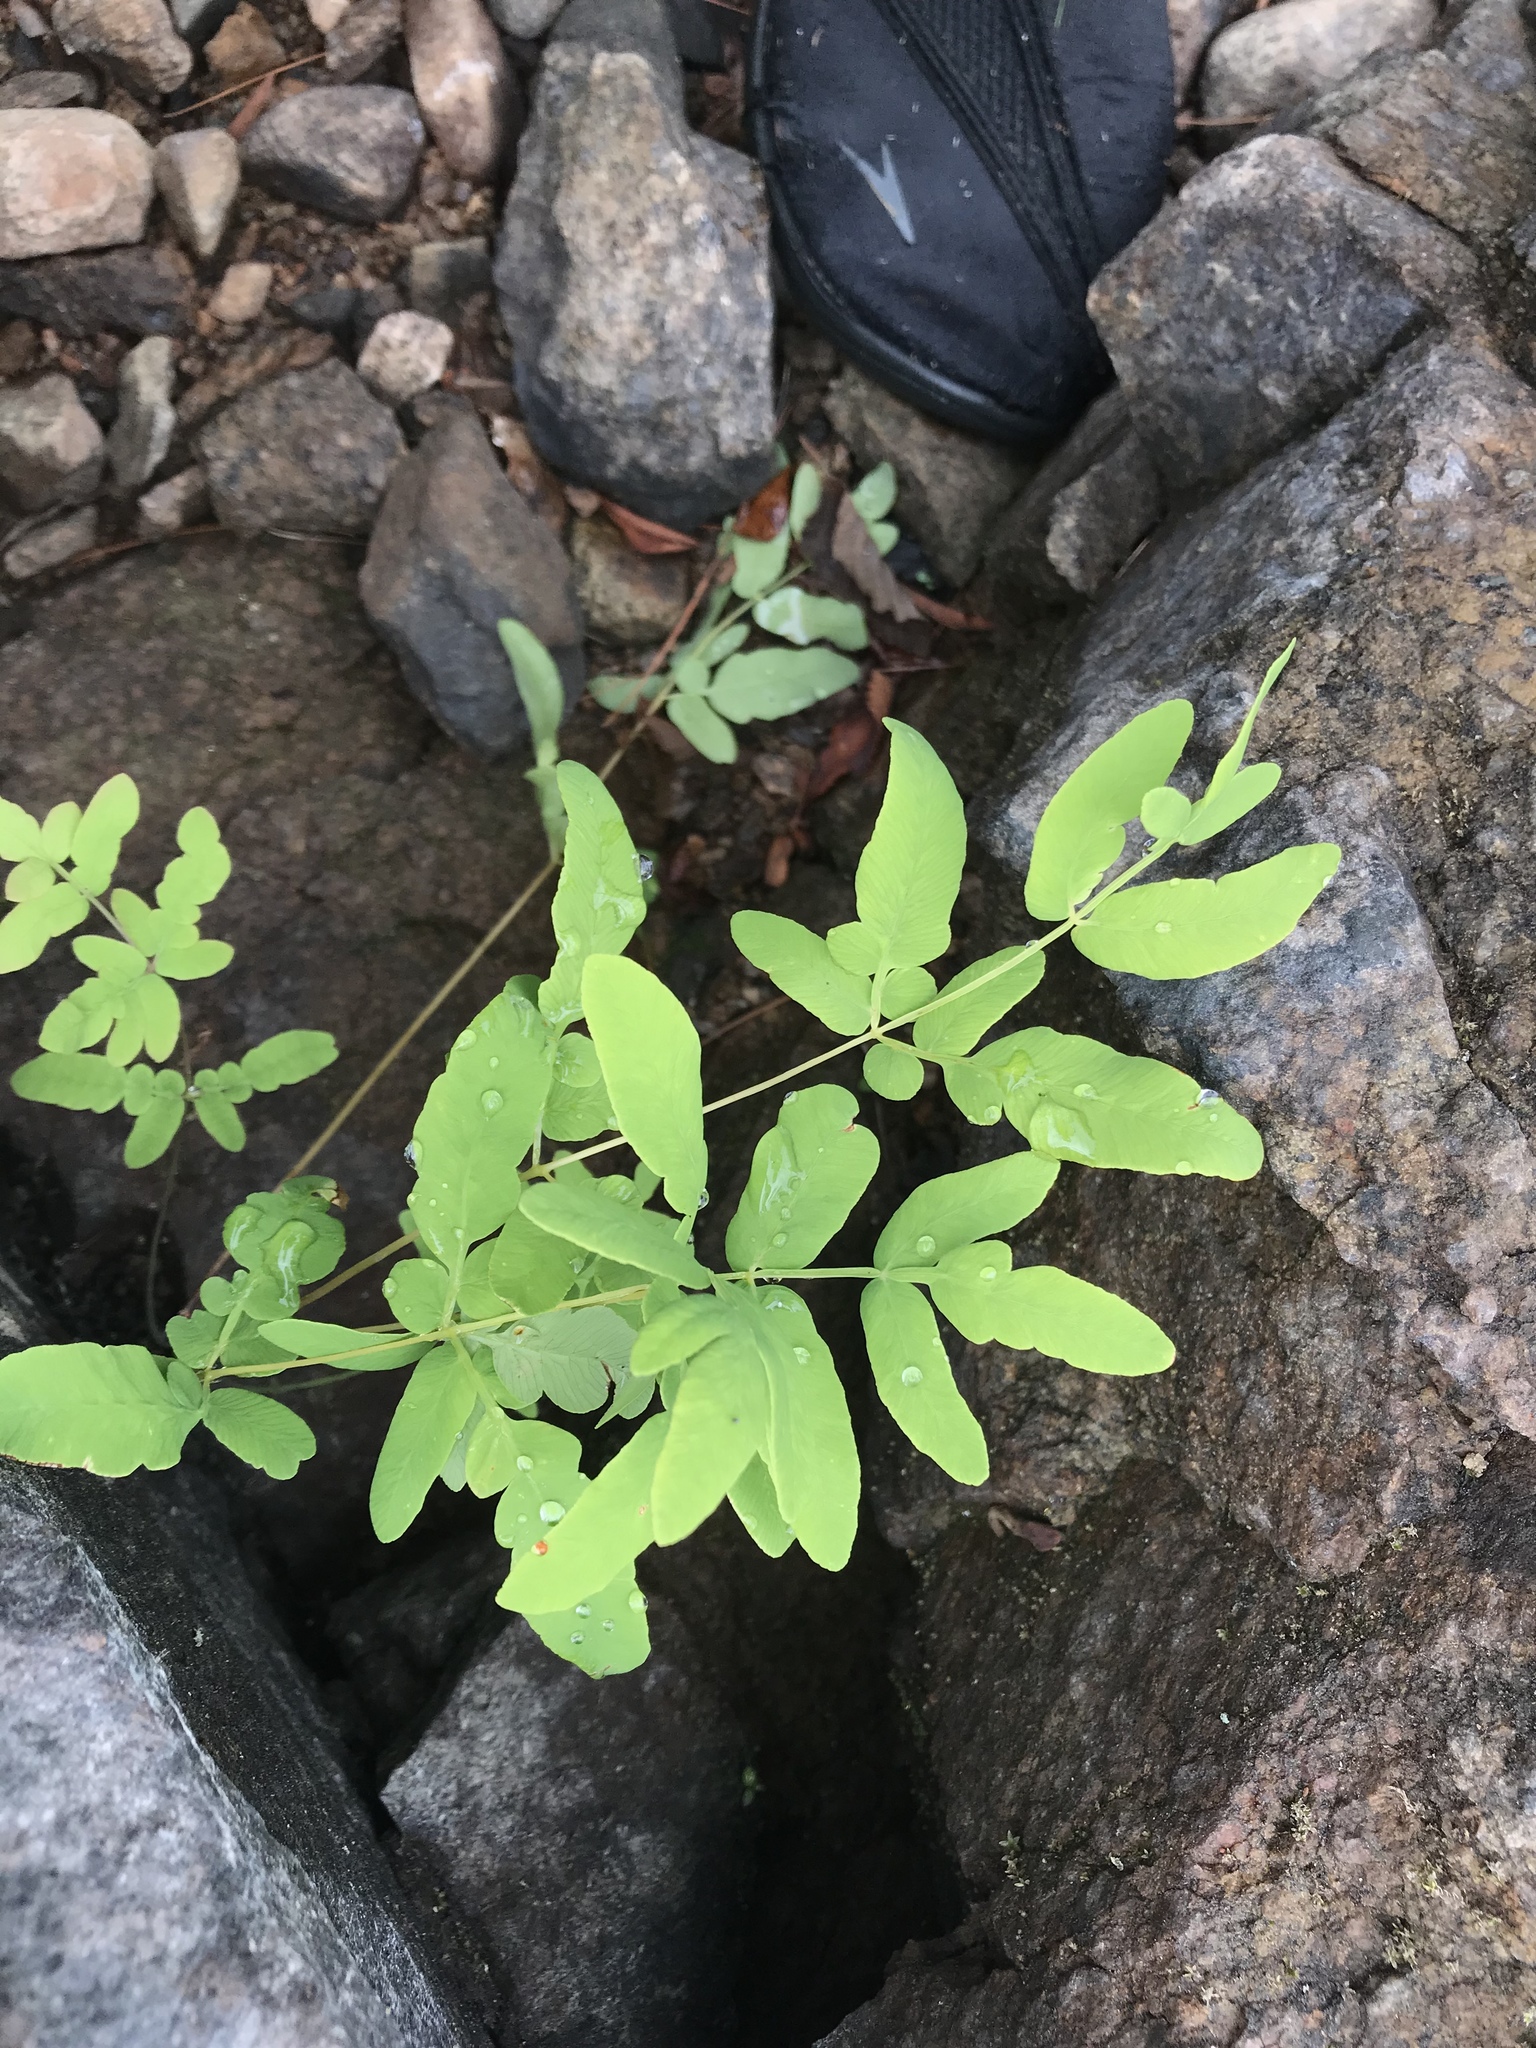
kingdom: Plantae
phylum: Tracheophyta
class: Polypodiopsida
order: Osmundales
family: Osmundaceae
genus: Osmunda
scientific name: Osmunda spectabilis
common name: American royal fern
